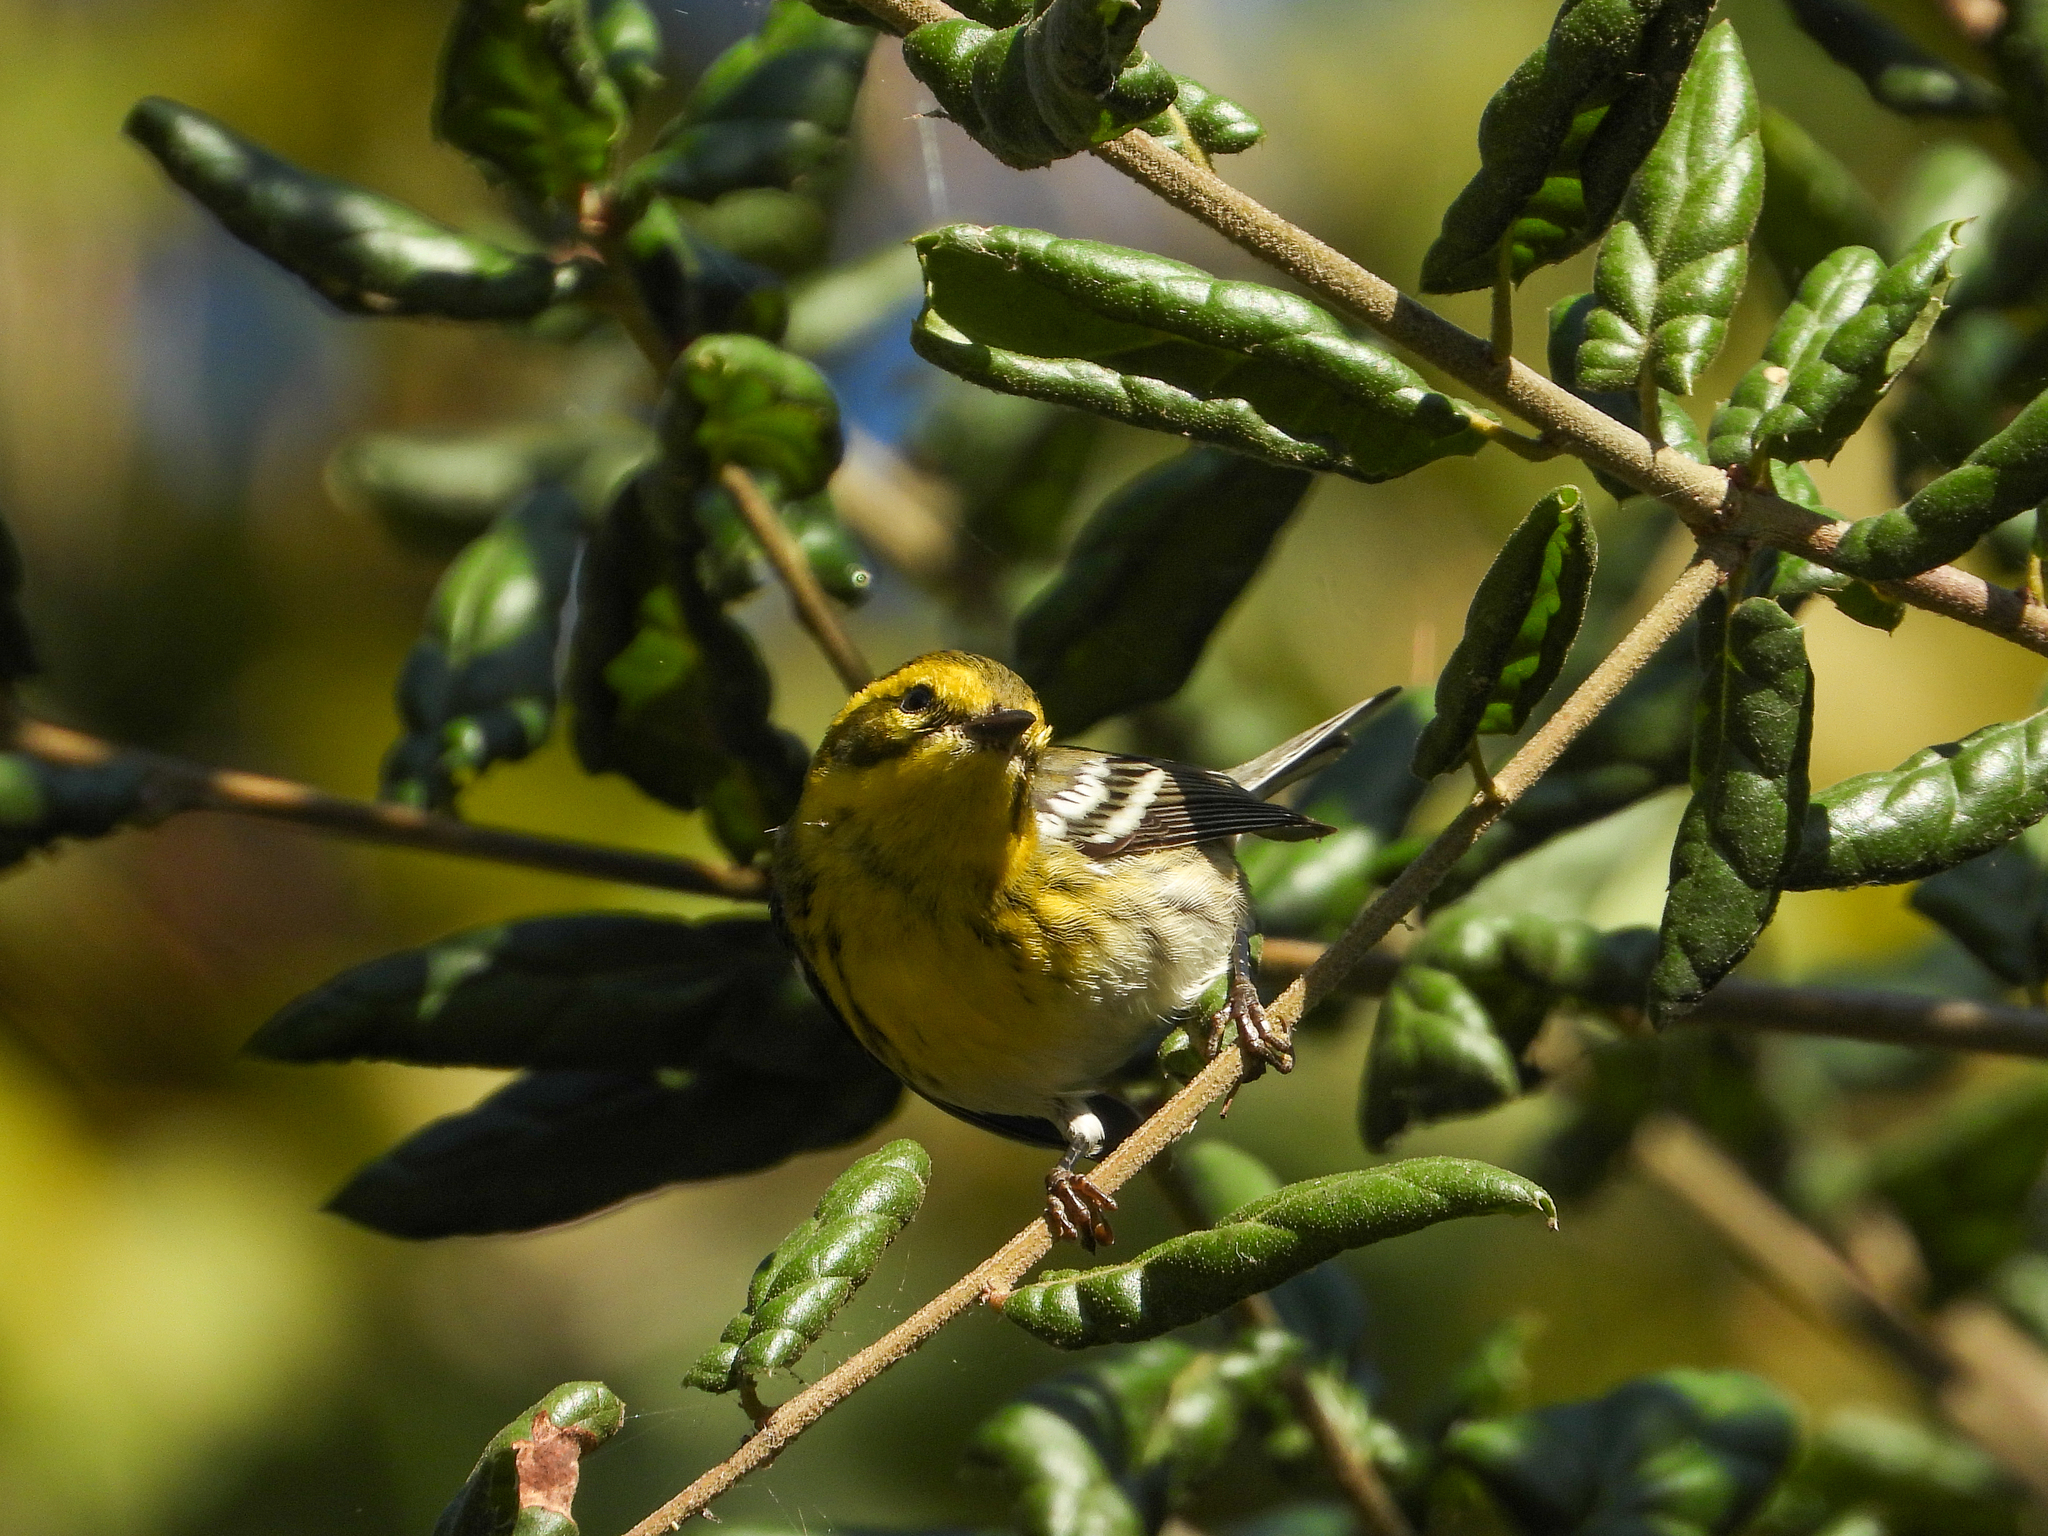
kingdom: Animalia
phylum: Chordata
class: Aves
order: Passeriformes
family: Parulidae
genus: Setophaga
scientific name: Setophaga townsendi
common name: Townsend's warbler
